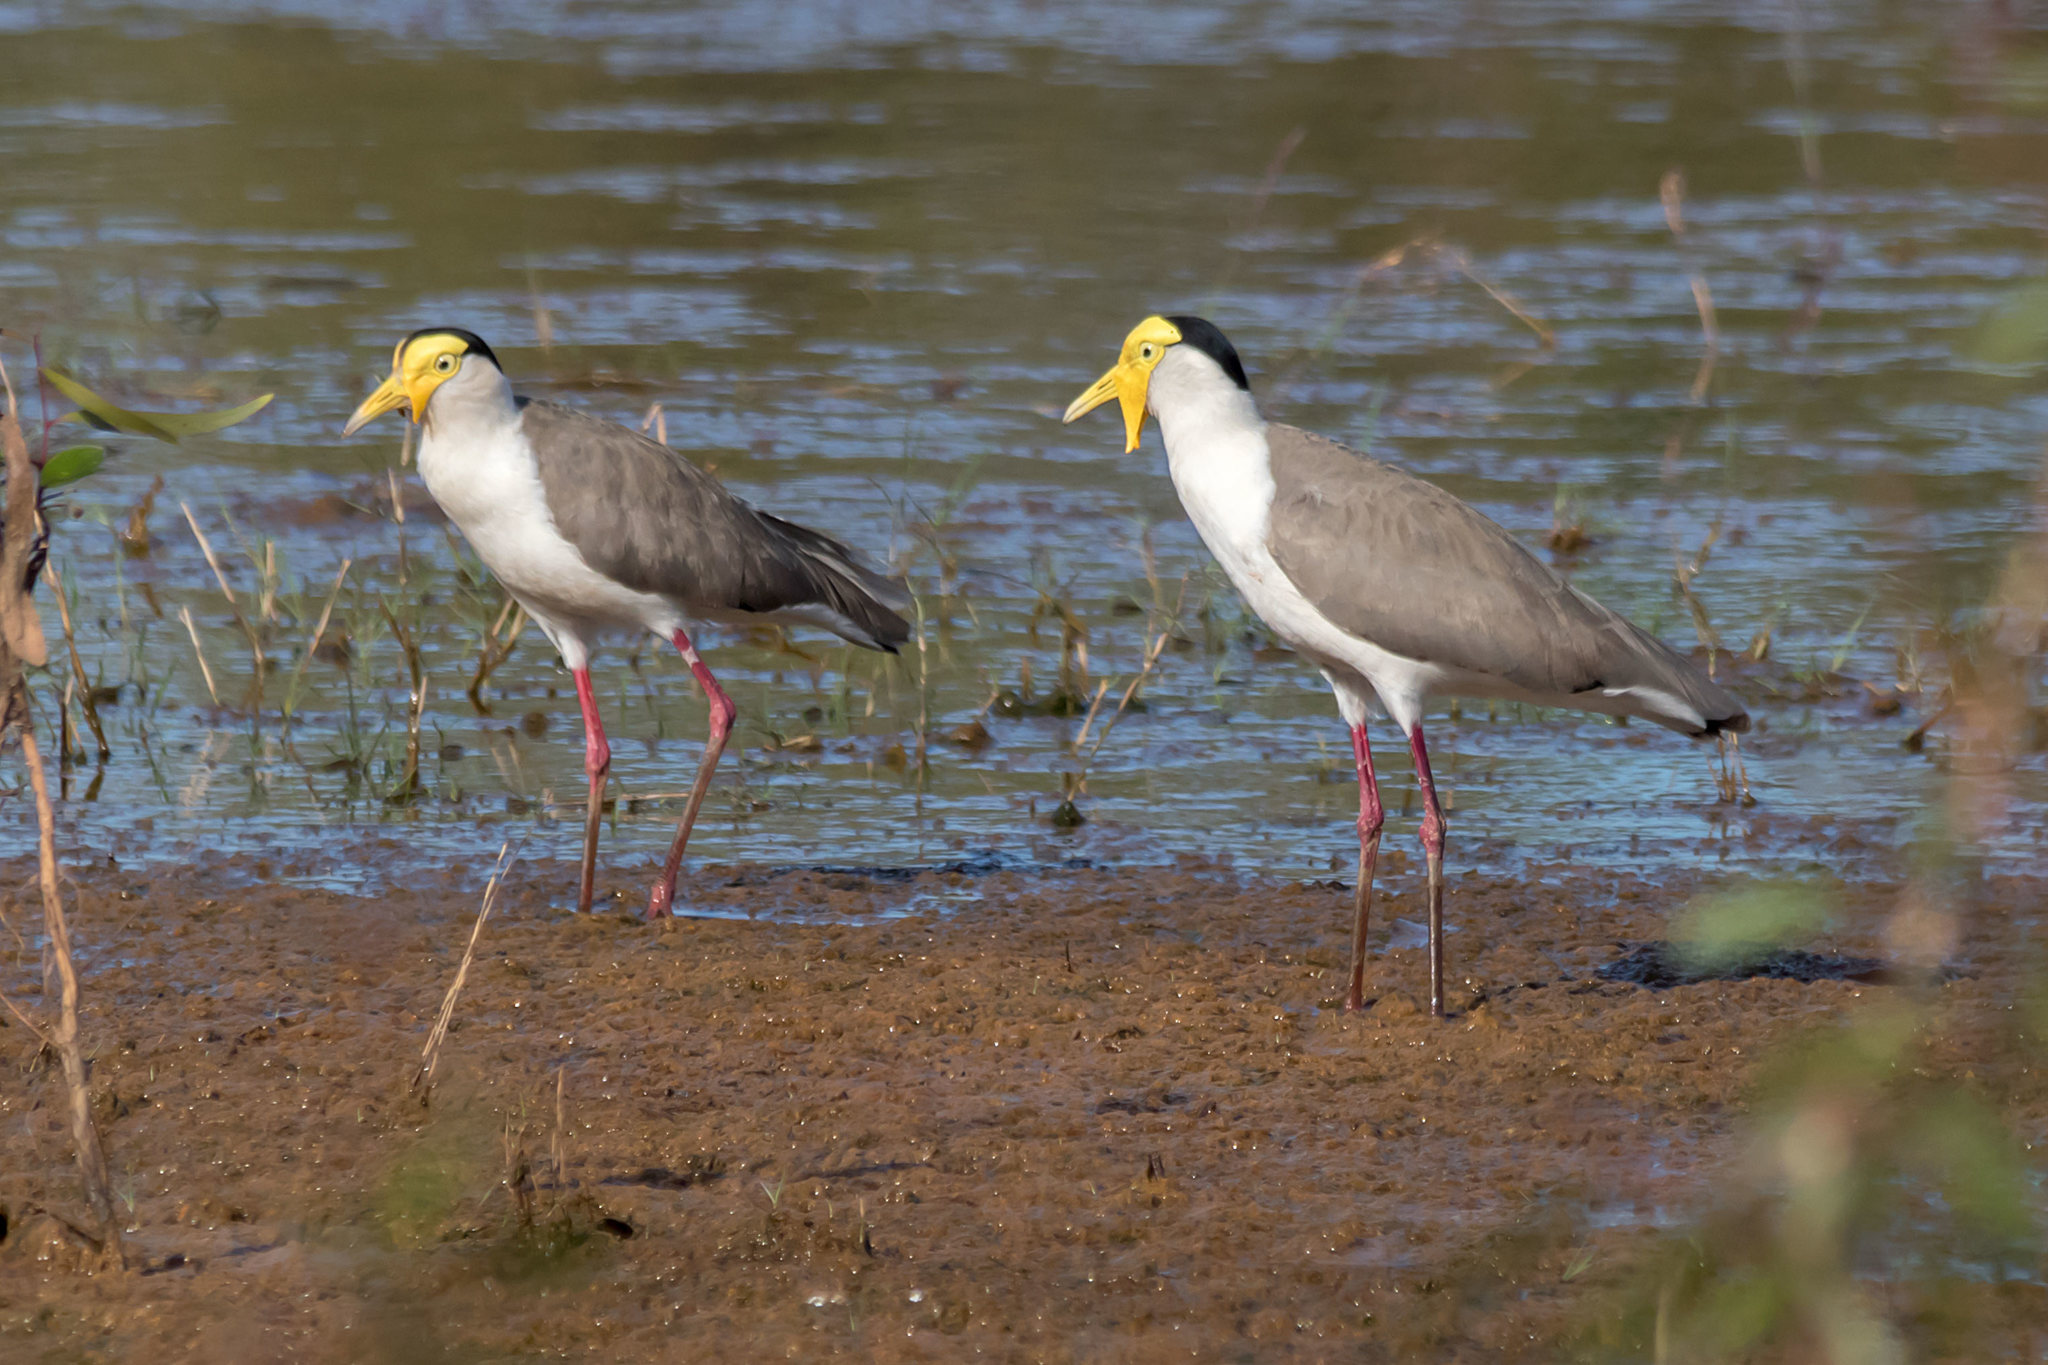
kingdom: Animalia
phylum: Chordata
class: Aves
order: Charadriiformes
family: Charadriidae
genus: Vanellus
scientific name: Vanellus miles
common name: Masked lapwing
